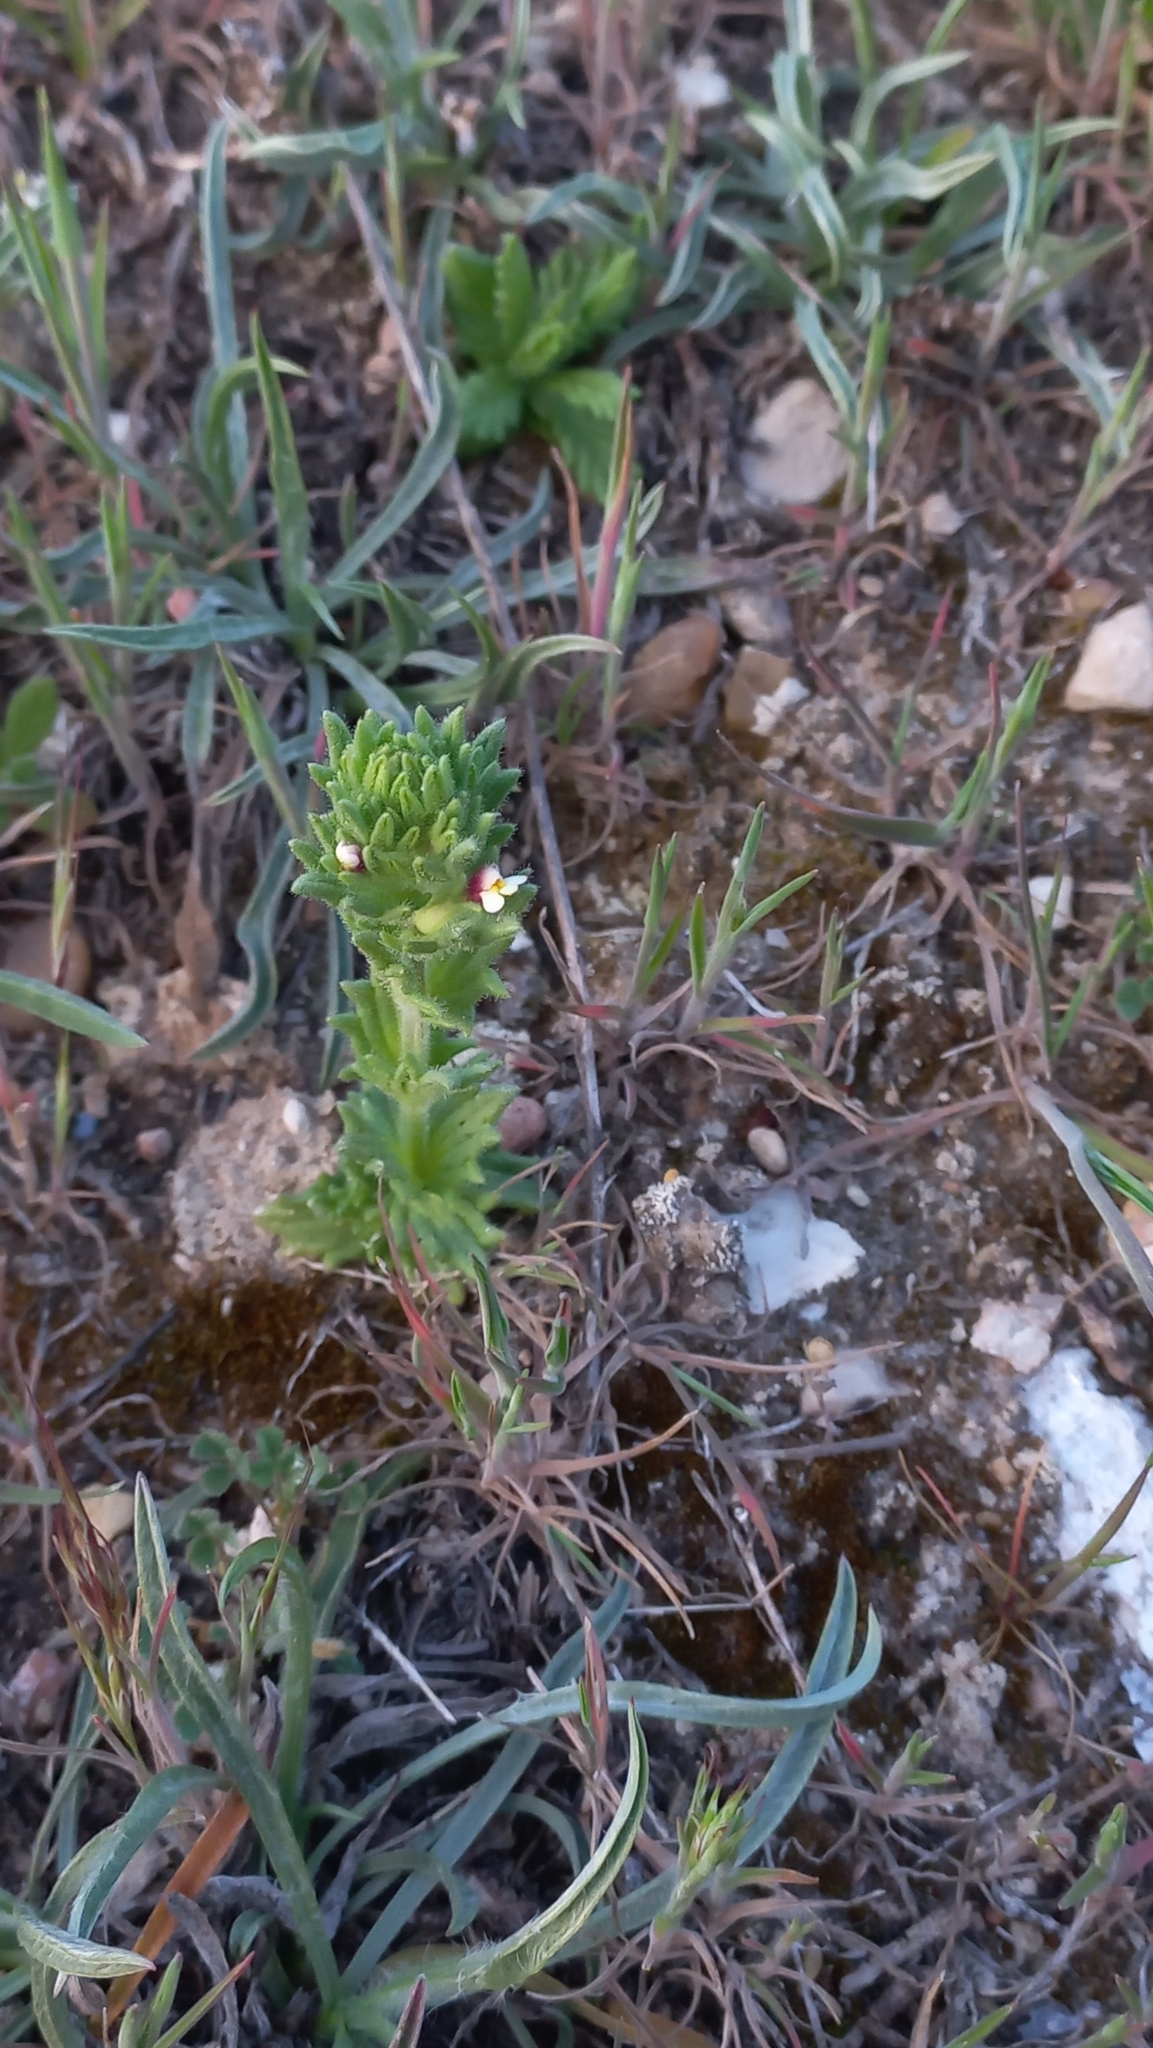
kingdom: Plantae
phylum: Tracheophyta
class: Magnoliopsida
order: Lamiales
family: Orobanchaceae
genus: Parentucellia
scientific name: Parentucellia latifolia
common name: Broadleaf glandweed
